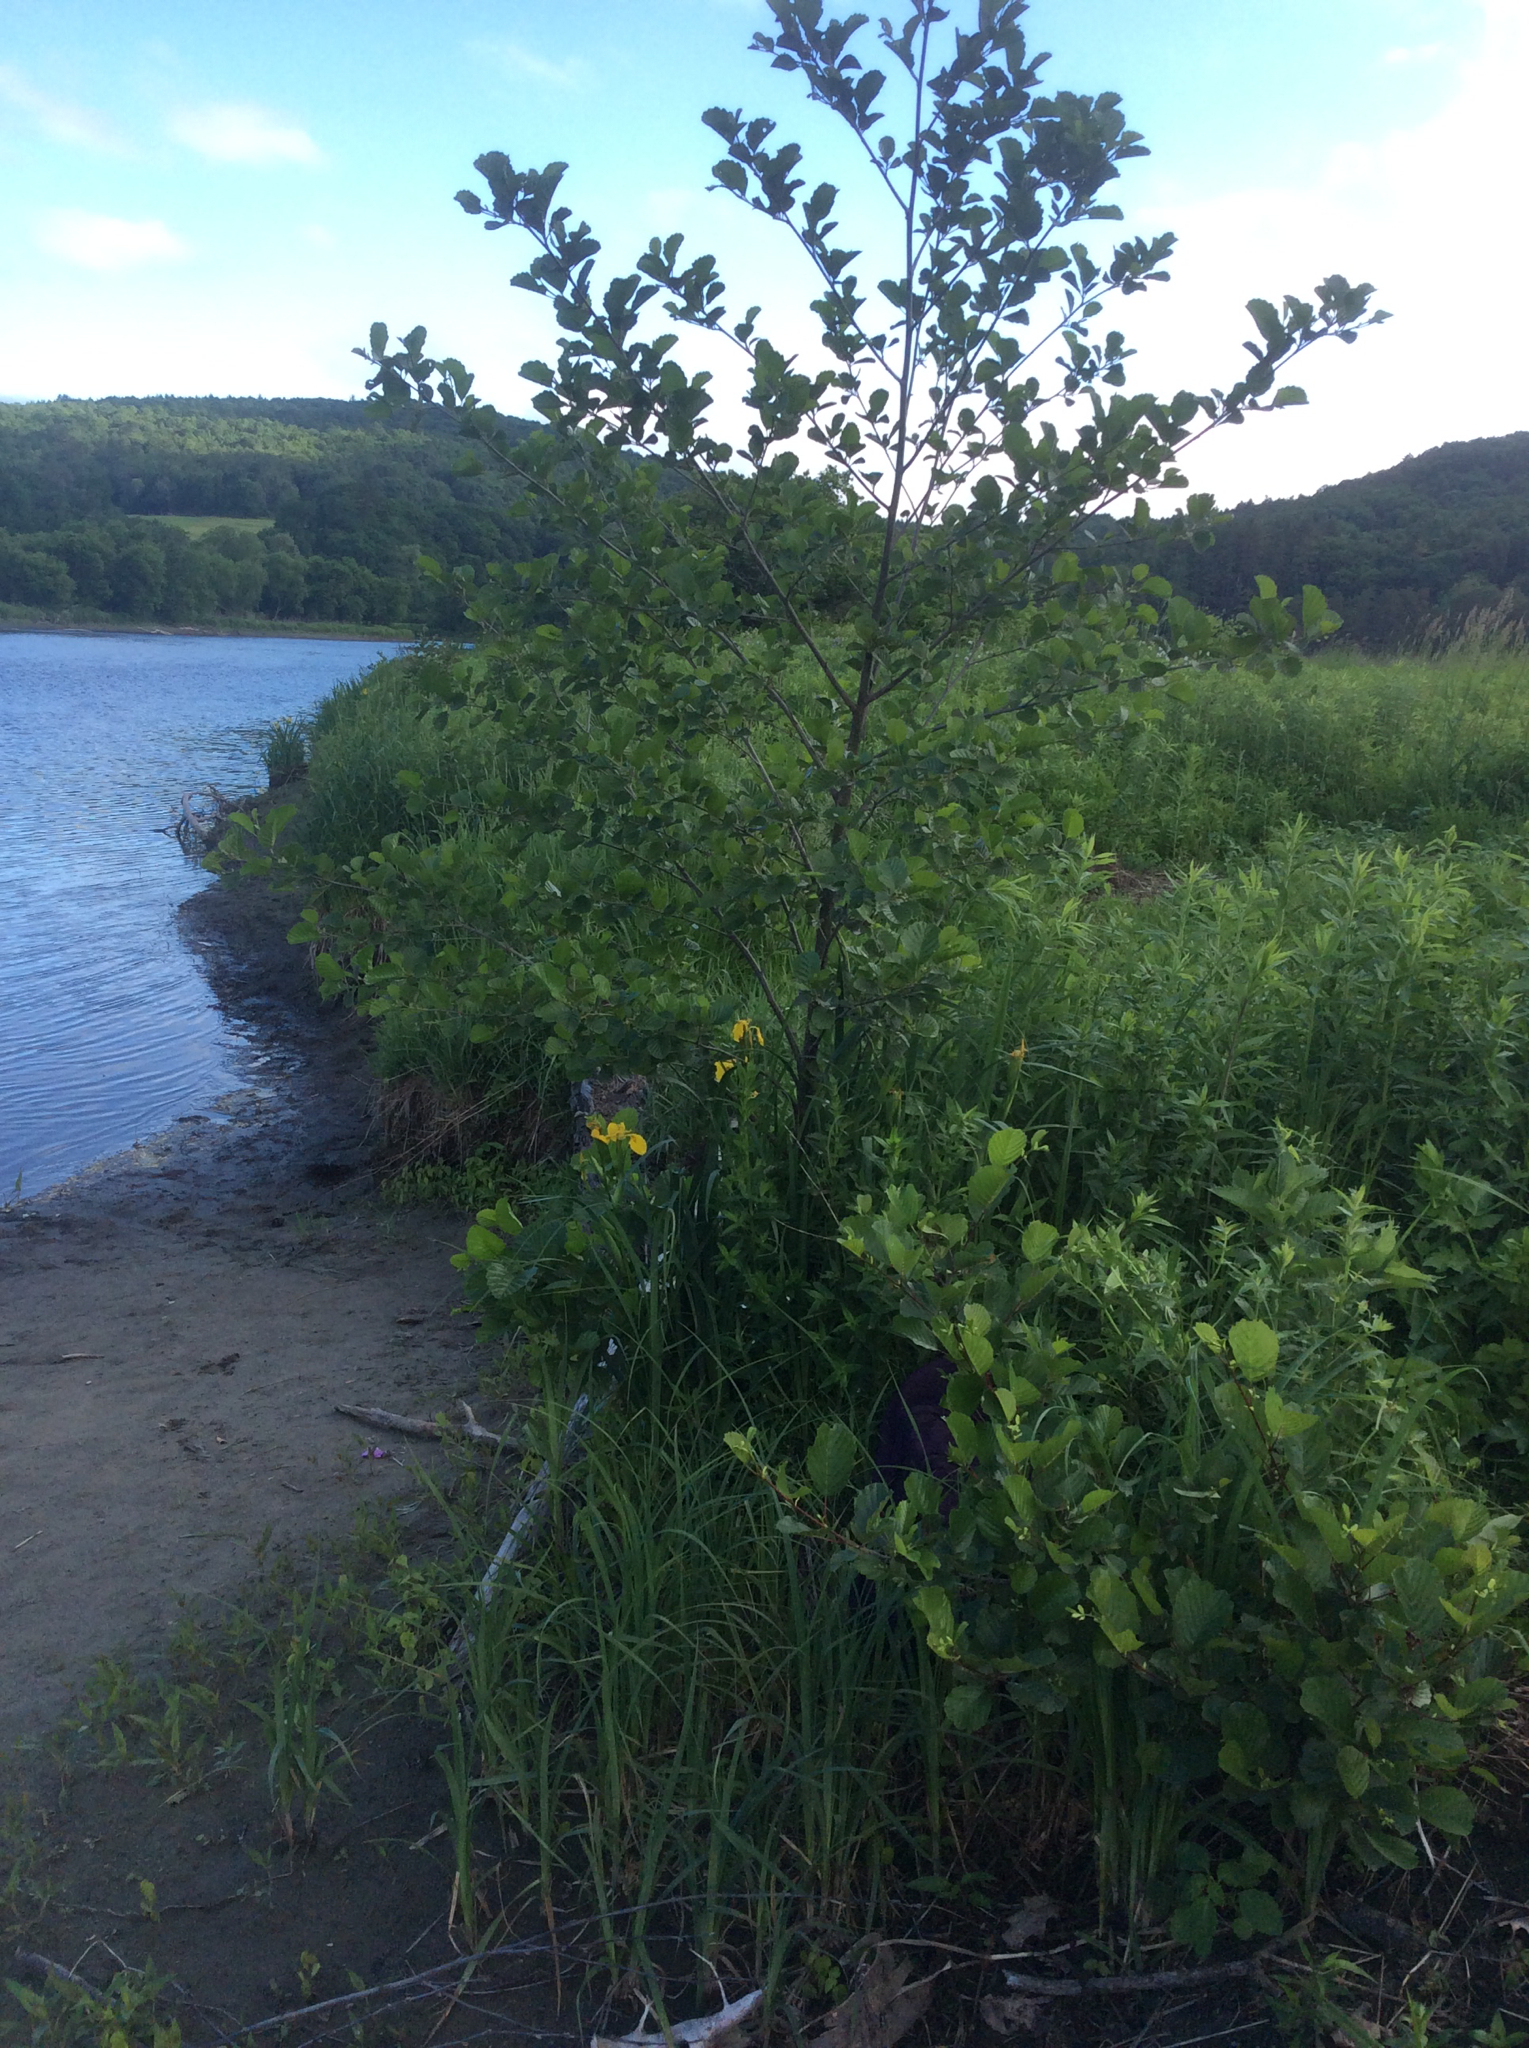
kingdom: Plantae
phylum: Tracheophyta
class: Magnoliopsida
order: Fagales
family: Betulaceae
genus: Alnus
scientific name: Alnus glutinosa
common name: Black alder
